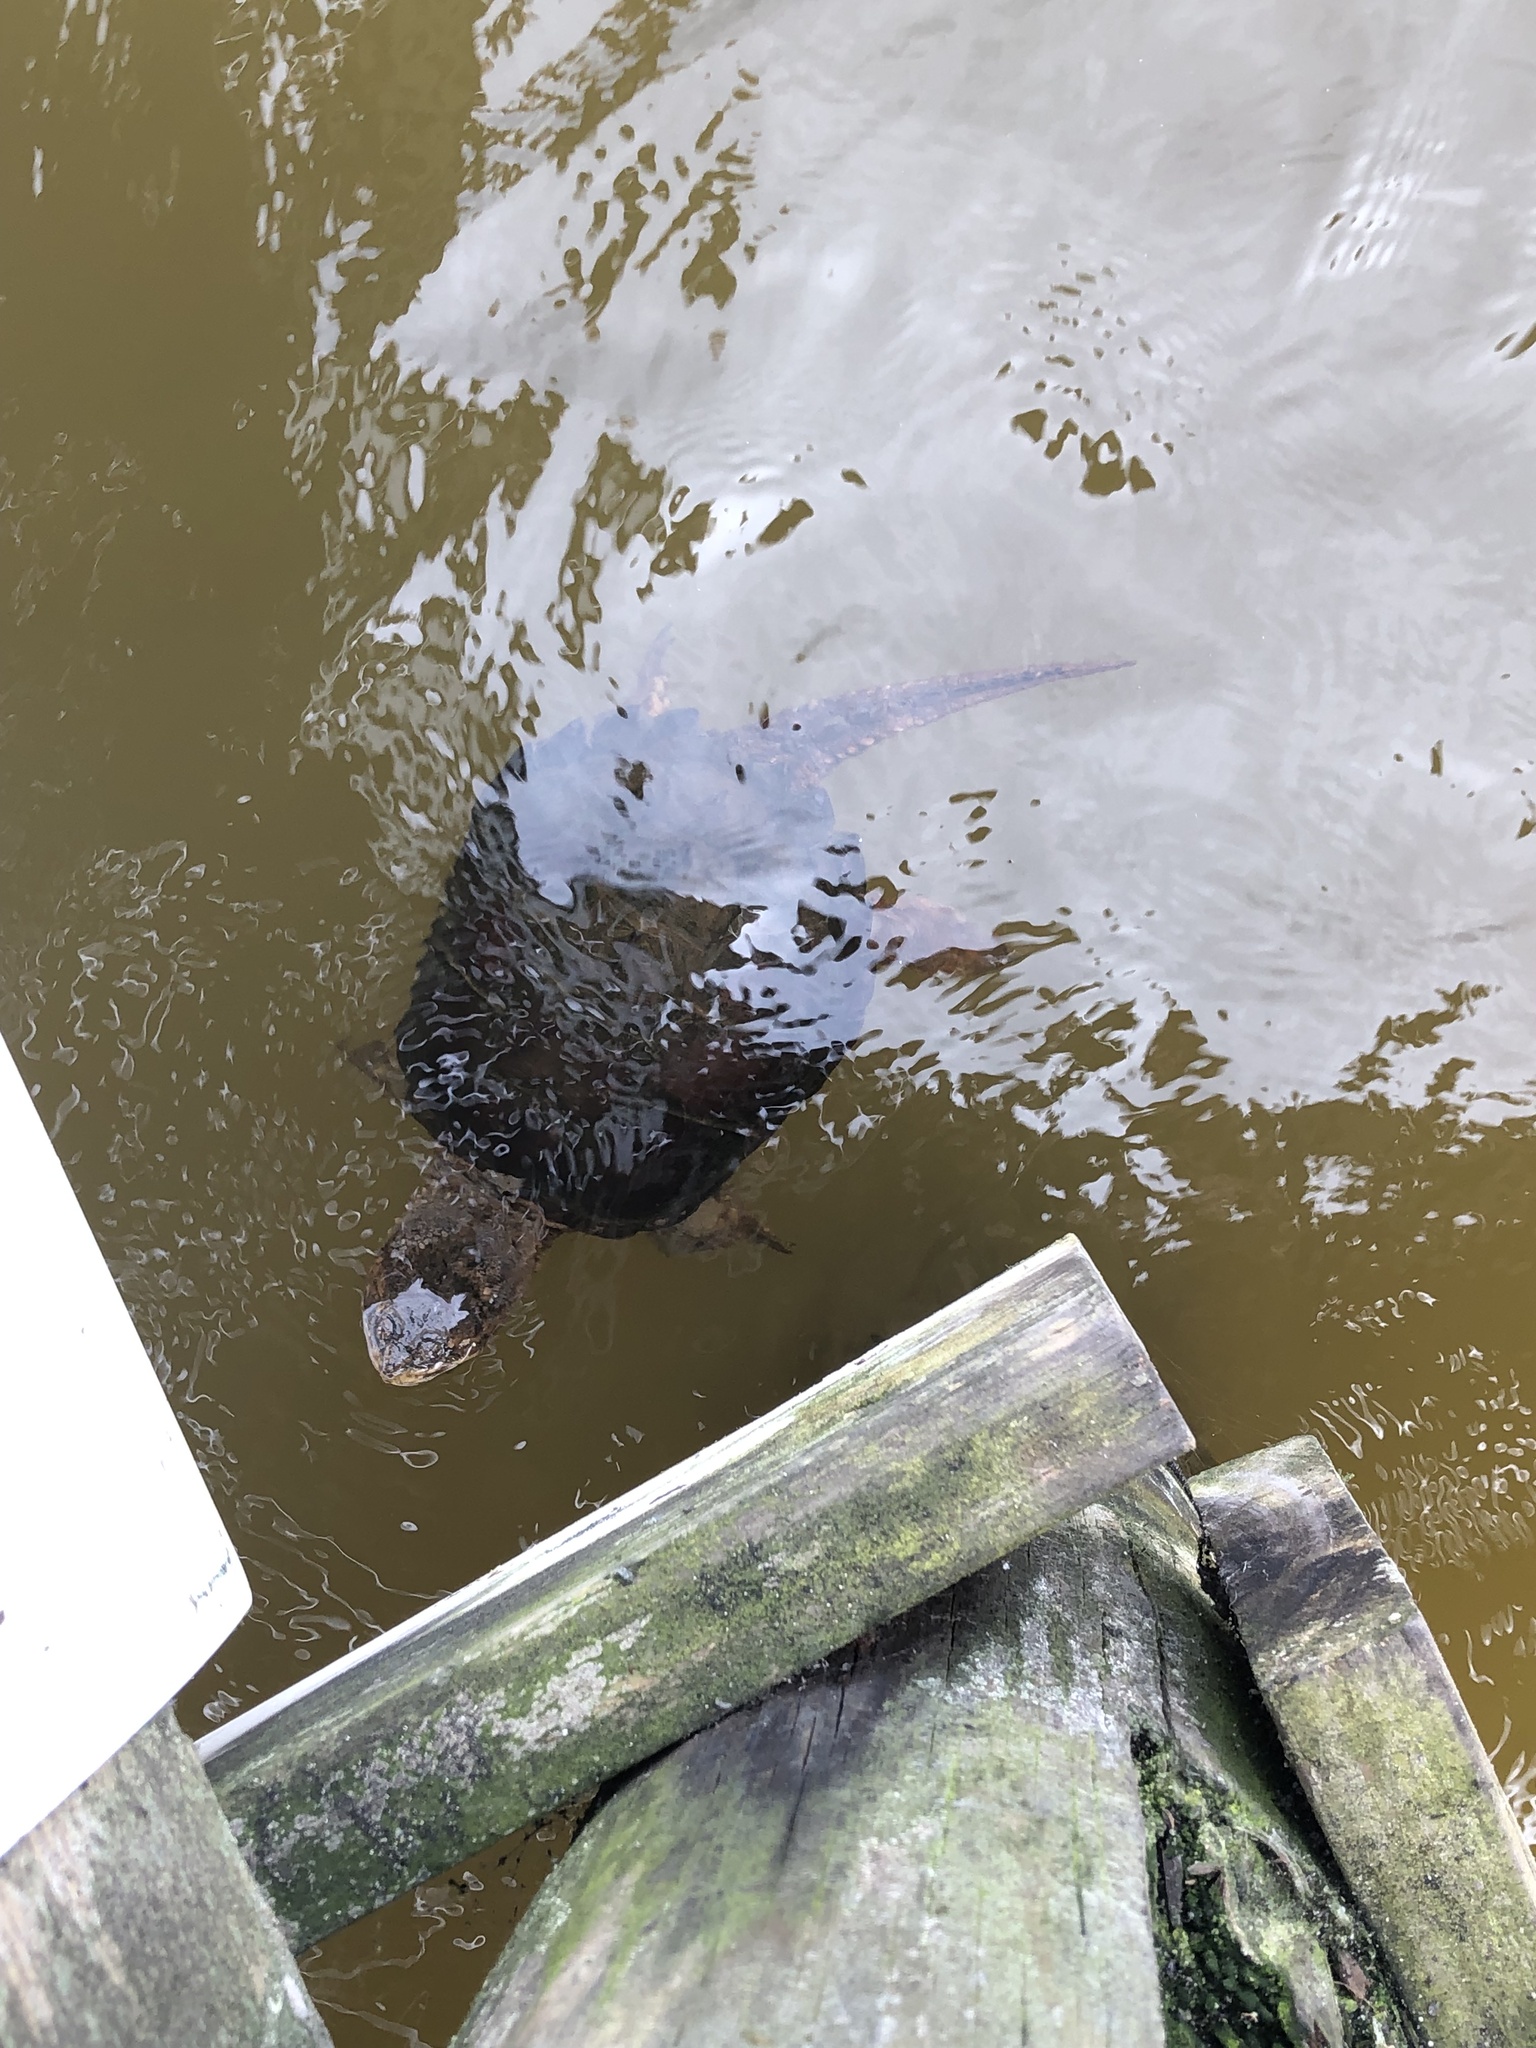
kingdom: Animalia
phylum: Chordata
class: Testudines
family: Chelydridae
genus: Chelydra
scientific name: Chelydra serpentina
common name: Common snapping turtle
